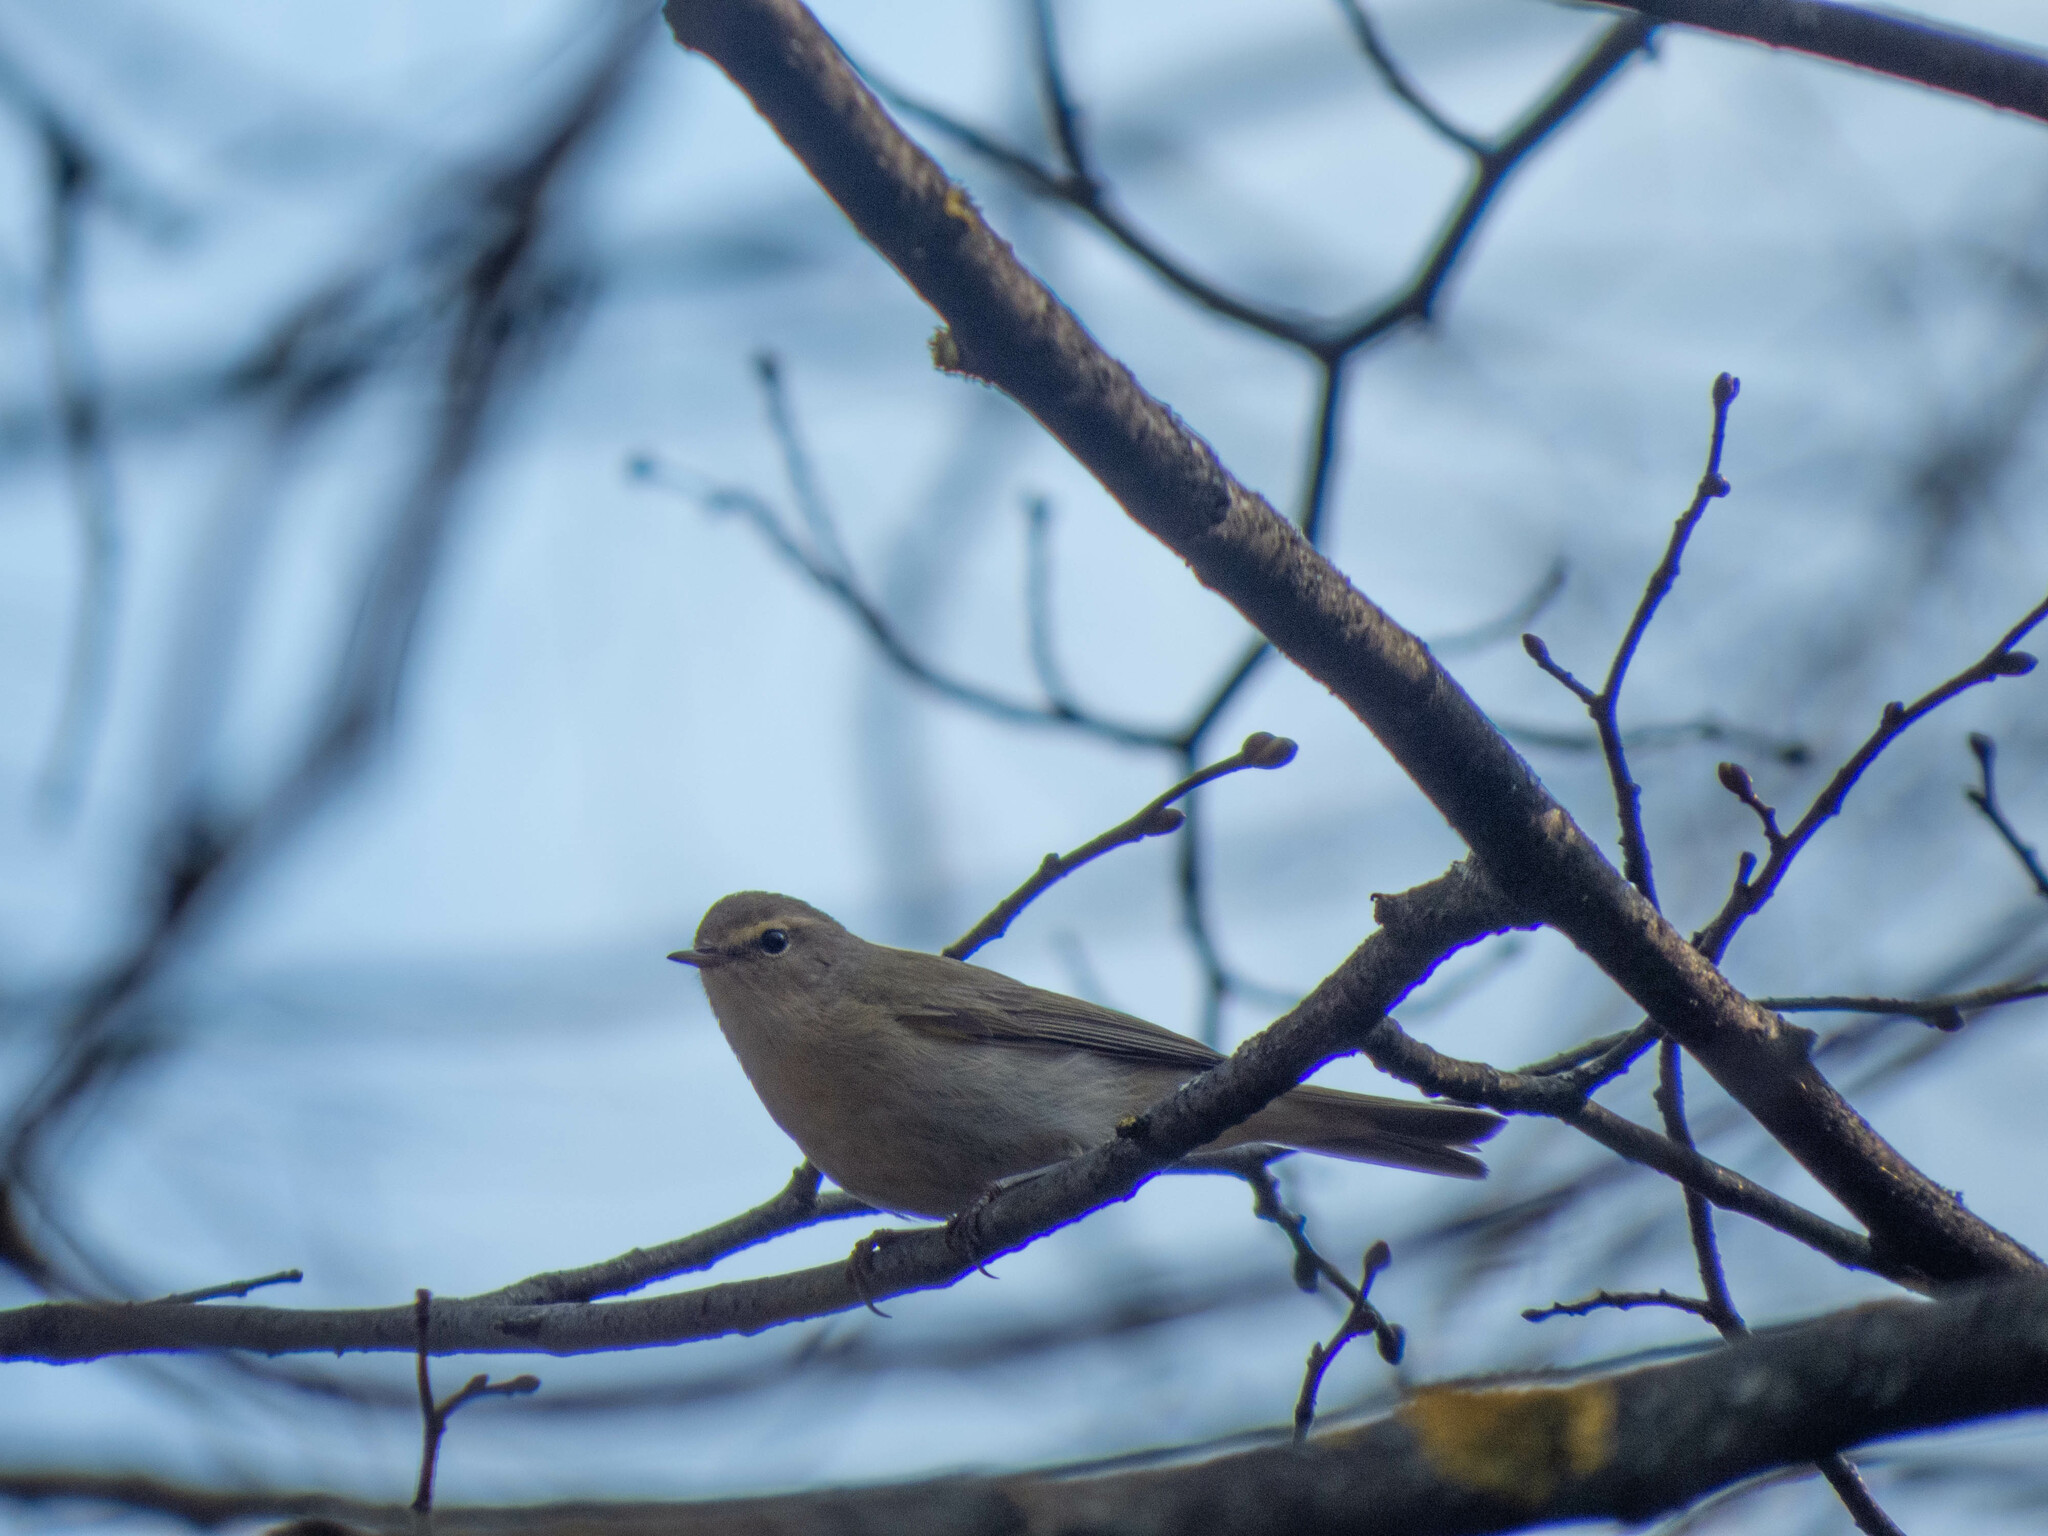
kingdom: Animalia
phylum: Chordata
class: Aves
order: Passeriformes
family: Phylloscopidae
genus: Phylloscopus
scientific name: Phylloscopus collybita
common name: Common chiffchaff
